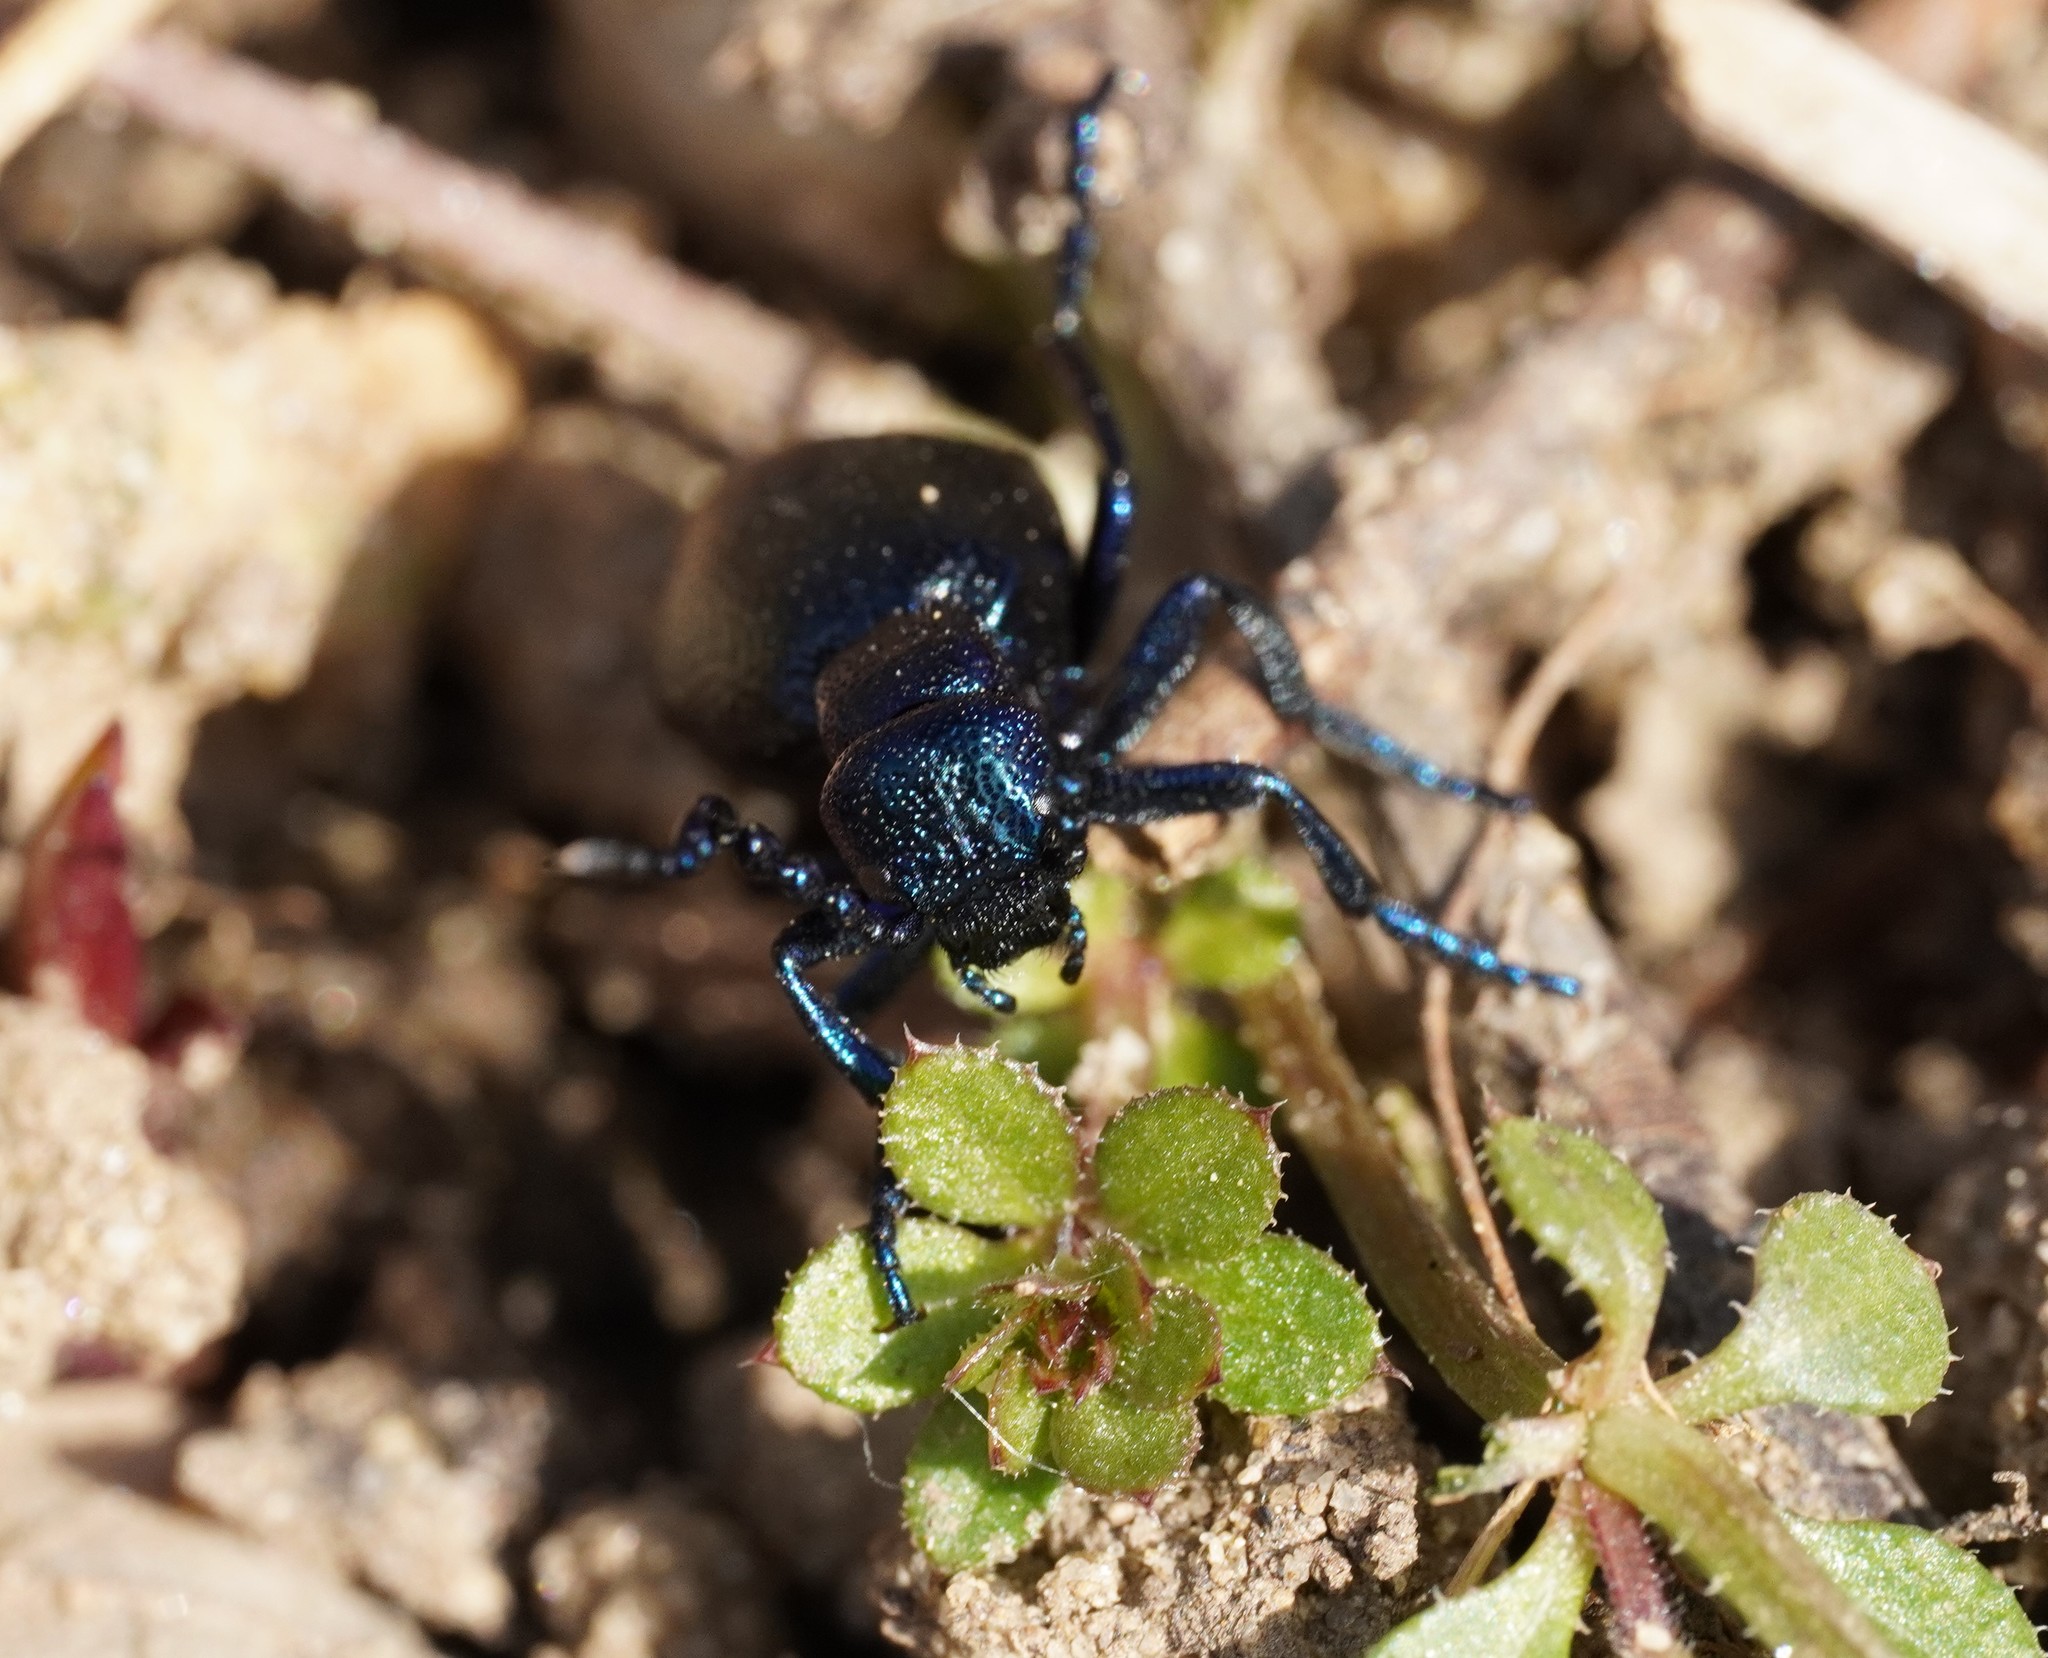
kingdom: Animalia
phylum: Arthropoda
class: Insecta
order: Coleoptera
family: Meloidae
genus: Meloe
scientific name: Meloe proscarabaeus
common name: Black oil-beetle
